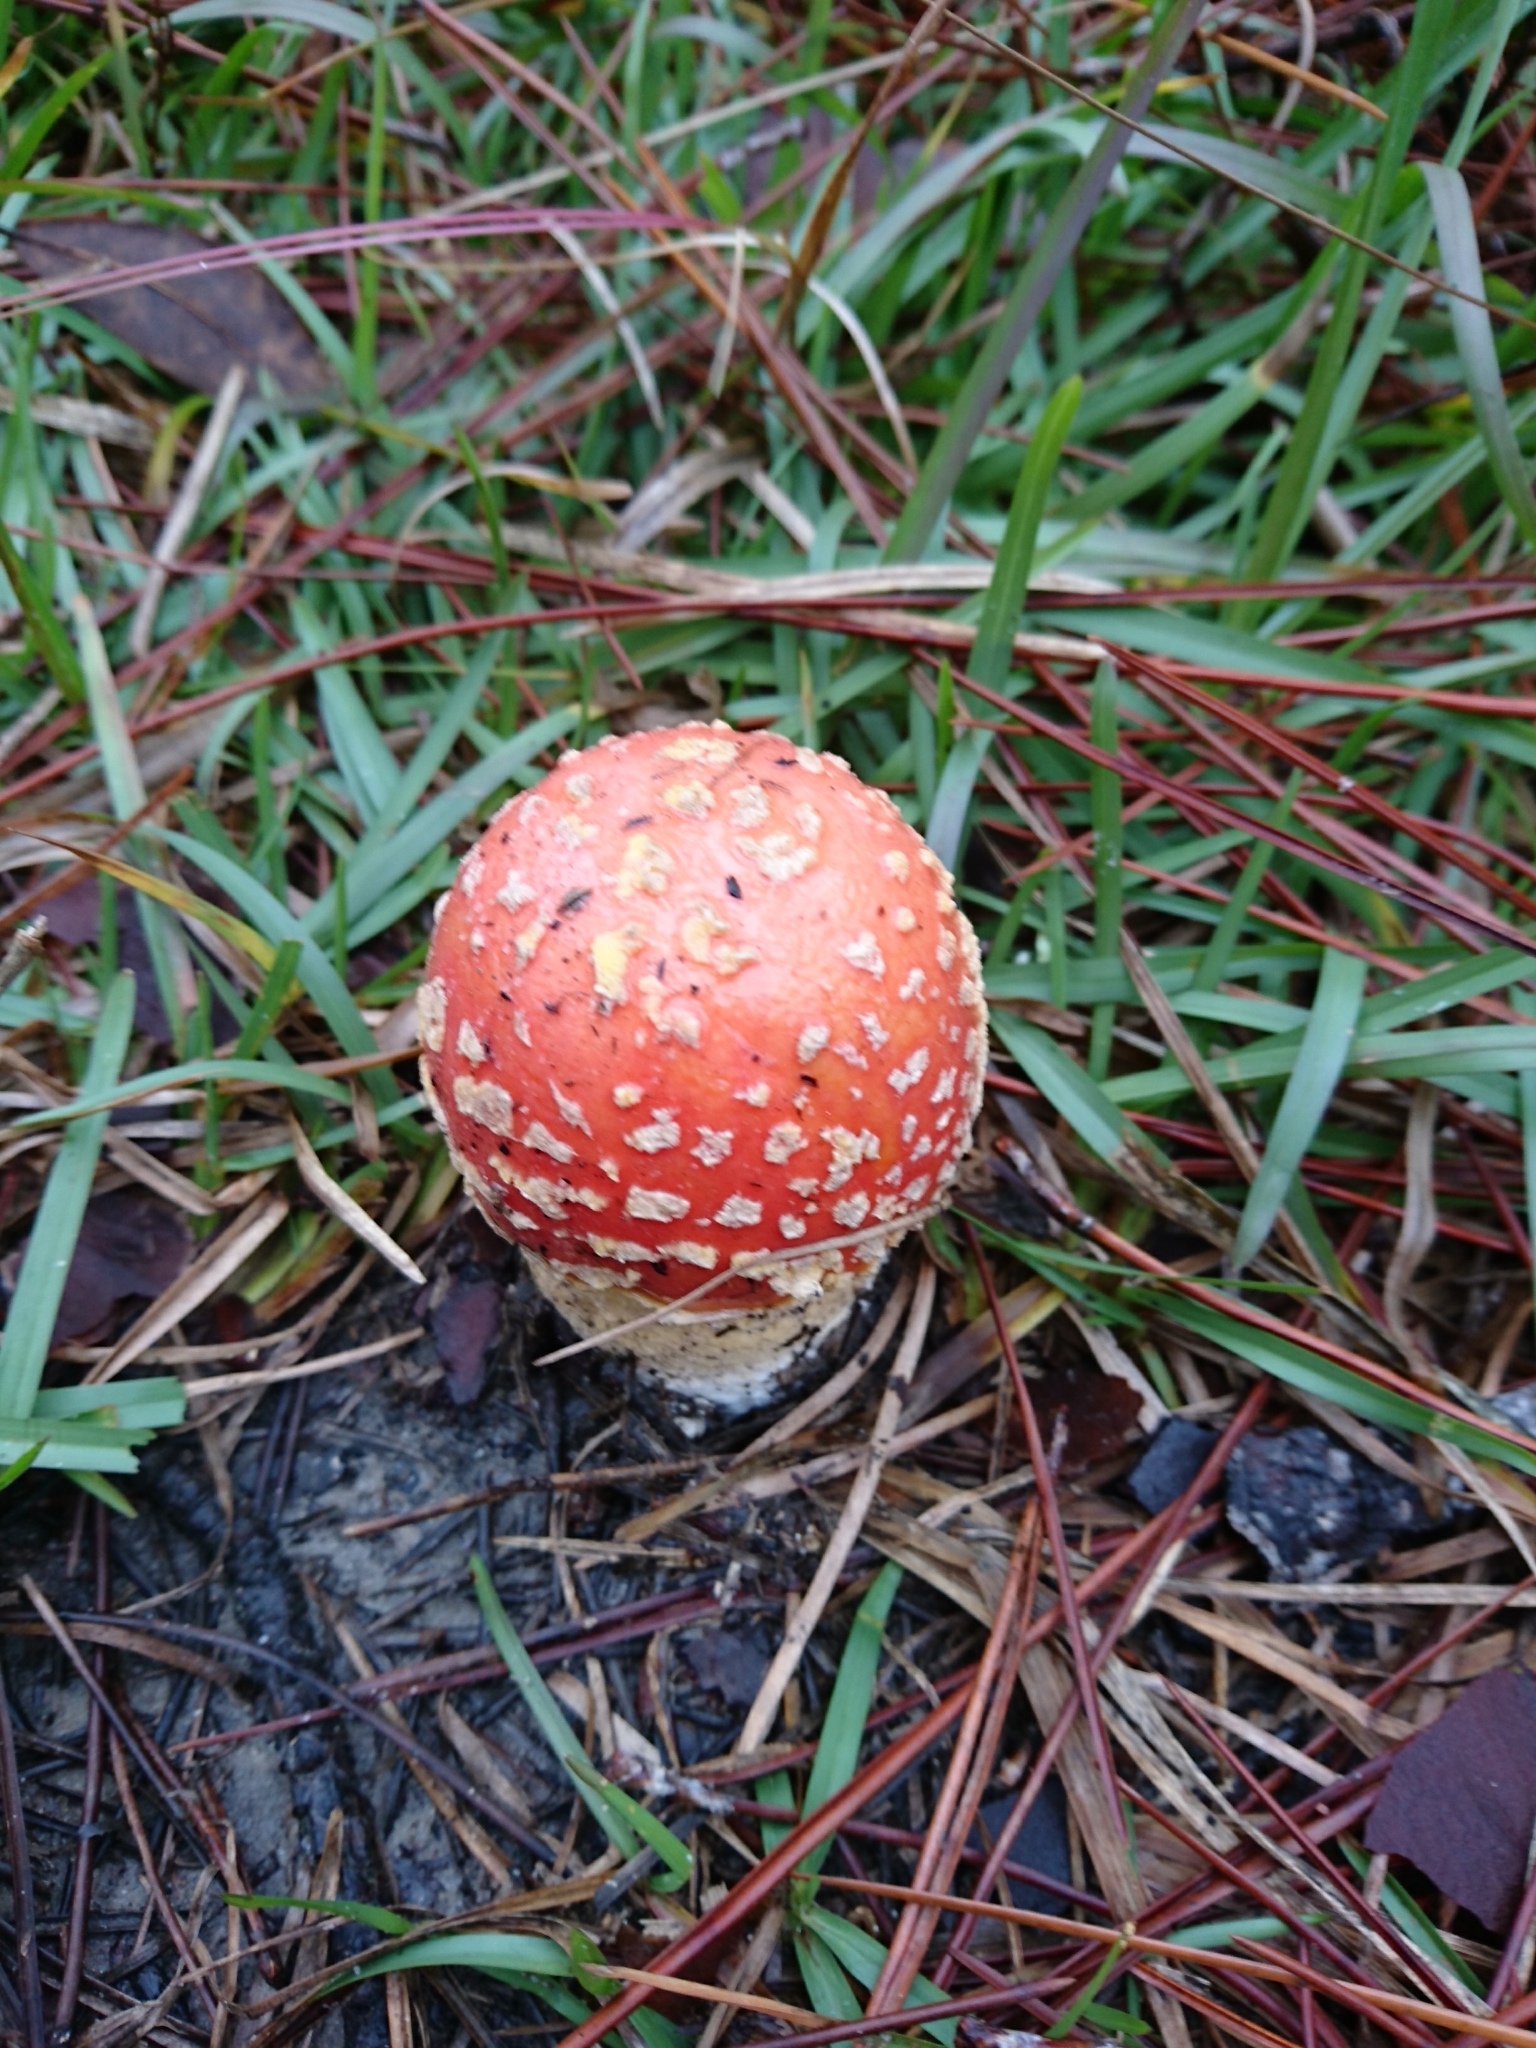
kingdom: Fungi
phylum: Basidiomycota
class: Agaricomycetes
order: Agaricales
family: Amanitaceae
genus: Amanita
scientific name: Amanita persicina
